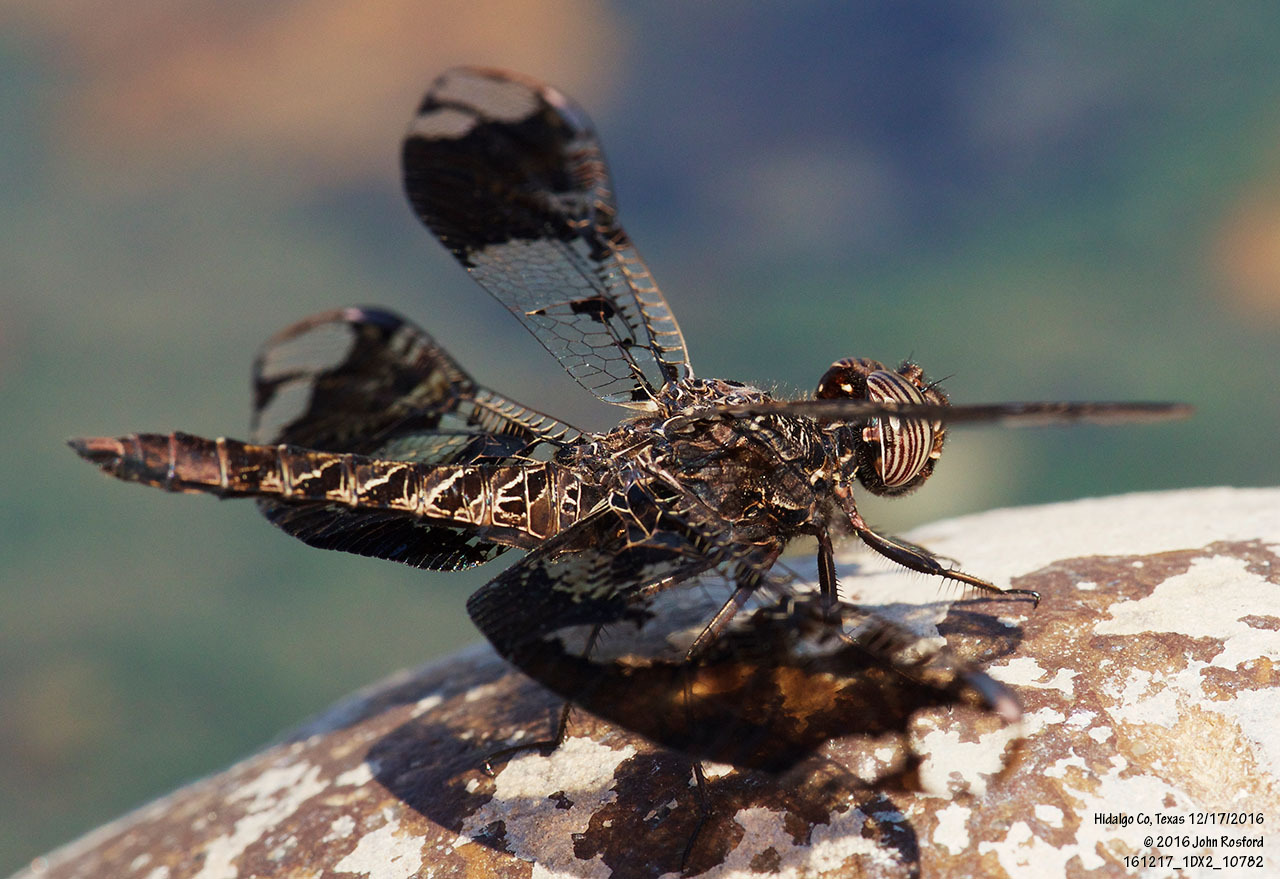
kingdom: Animalia
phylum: Arthropoda
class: Insecta
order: Odonata
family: Libellulidae
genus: Pseudoleon
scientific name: Pseudoleon superbus
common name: Filigree skimmer
